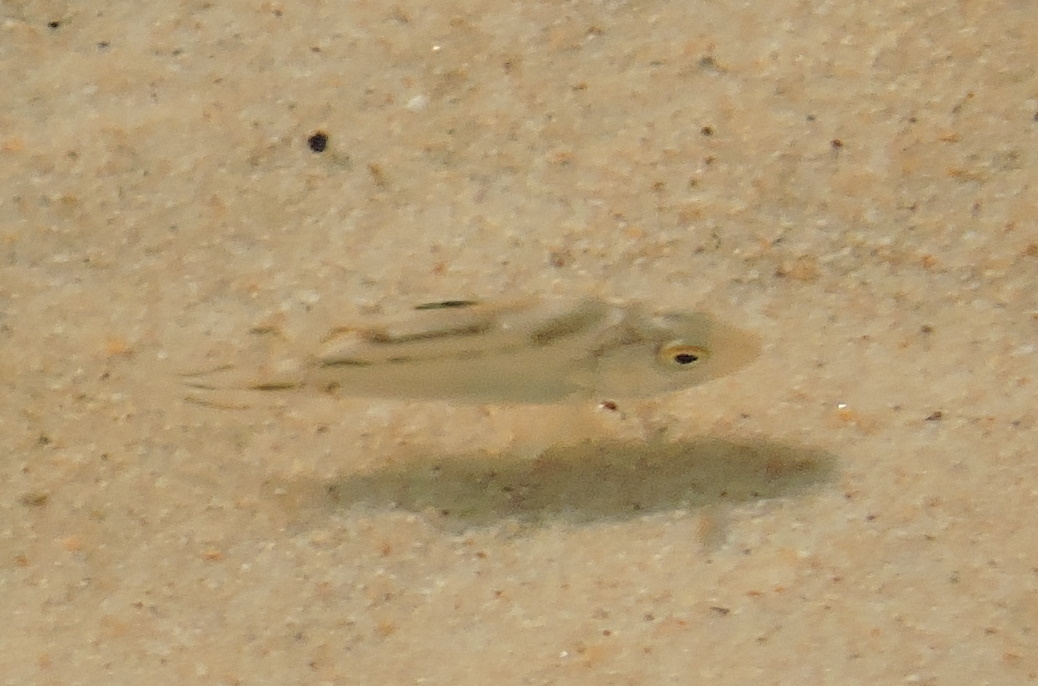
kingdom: Animalia
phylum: Chordata
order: Perciformes
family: Terapontidae
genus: Terapon
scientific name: Terapon jarbua
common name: Jarbua terapon
